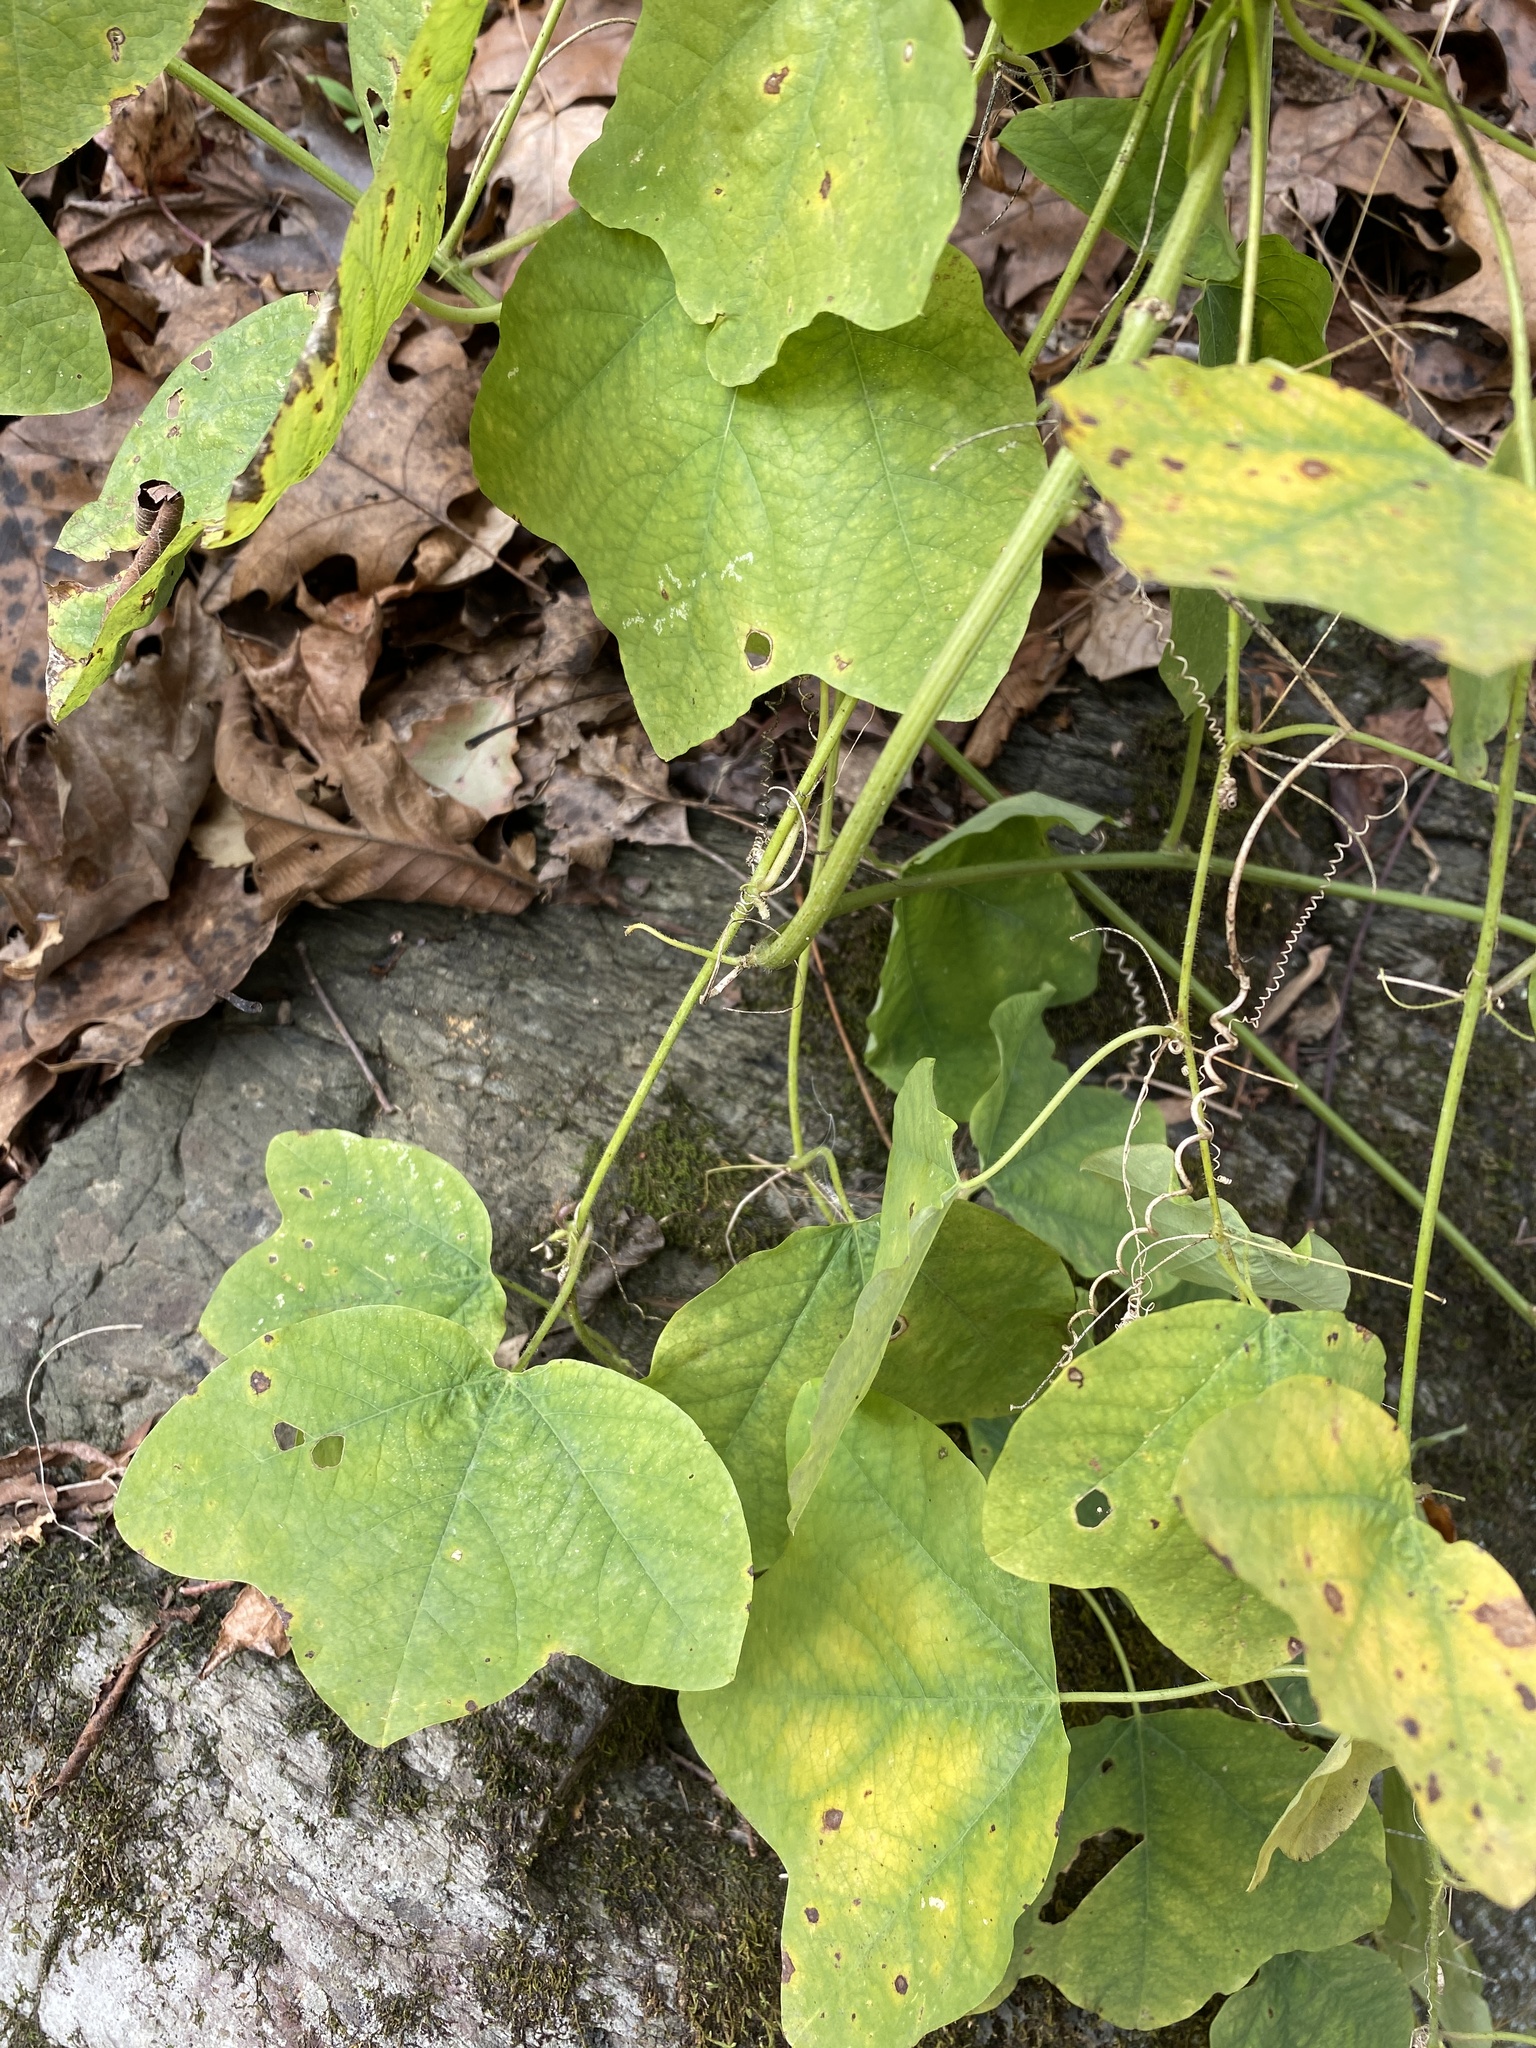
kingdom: Plantae
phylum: Tracheophyta
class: Magnoliopsida
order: Malpighiales
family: Passifloraceae
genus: Passiflora
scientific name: Passiflora lutea
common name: Yellow passionflower
